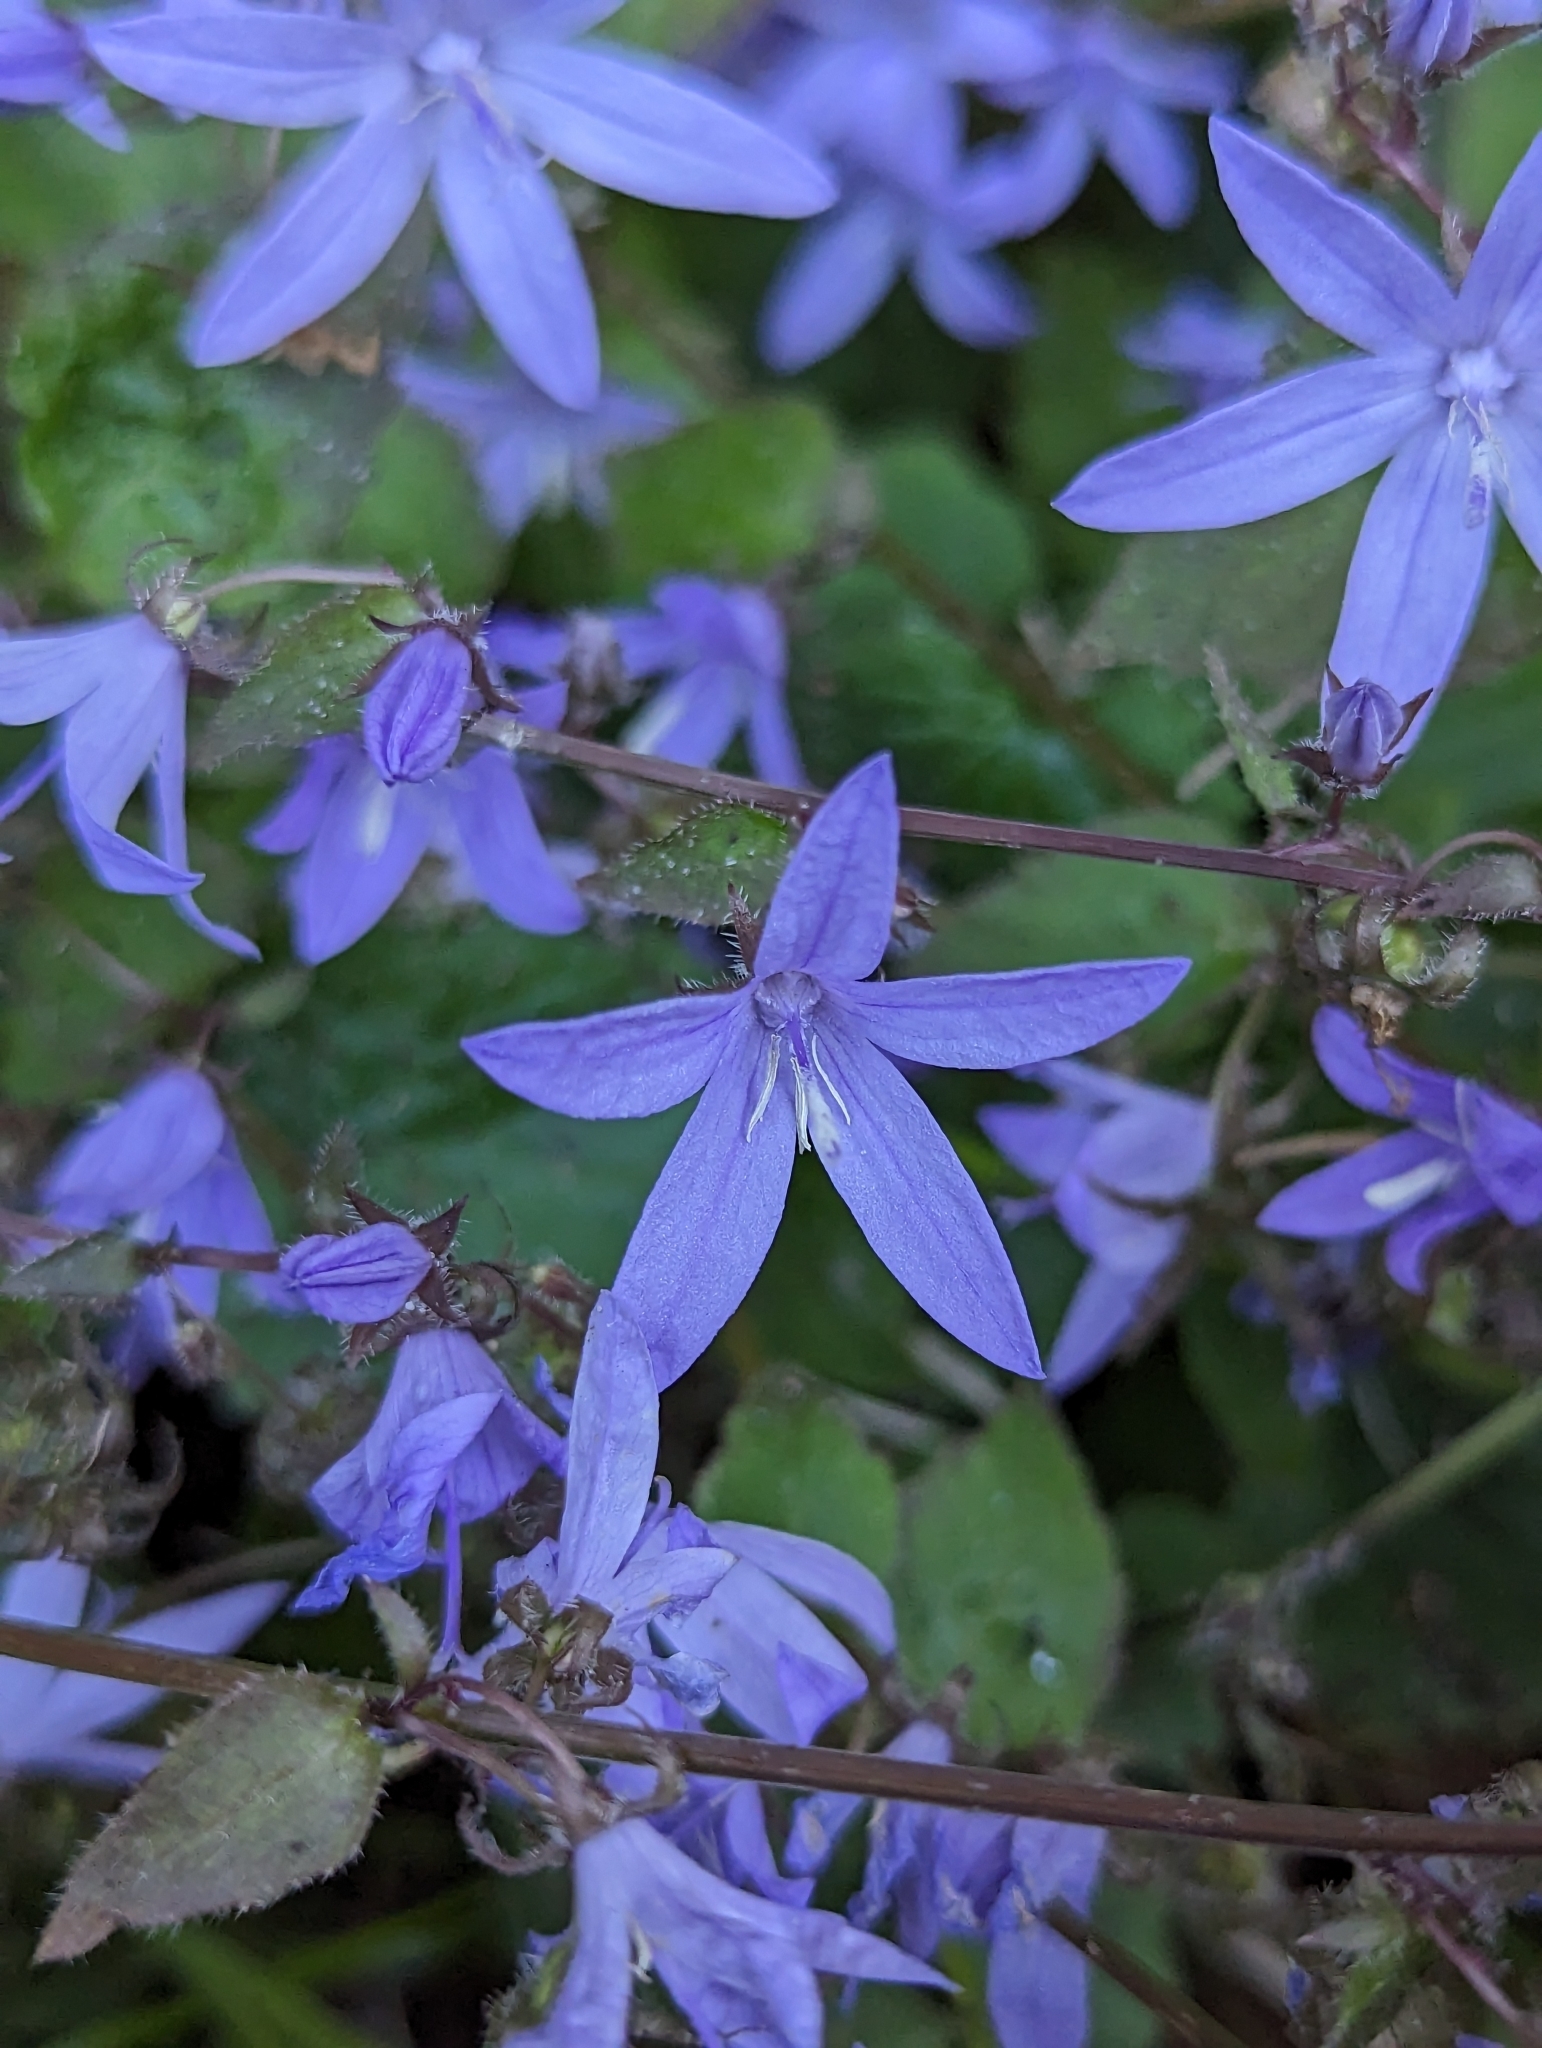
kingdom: Plantae
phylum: Tracheophyta
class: Magnoliopsida
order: Asterales
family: Campanulaceae
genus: Campanula
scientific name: Campanula poscharskyana
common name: Trailing bellflower
